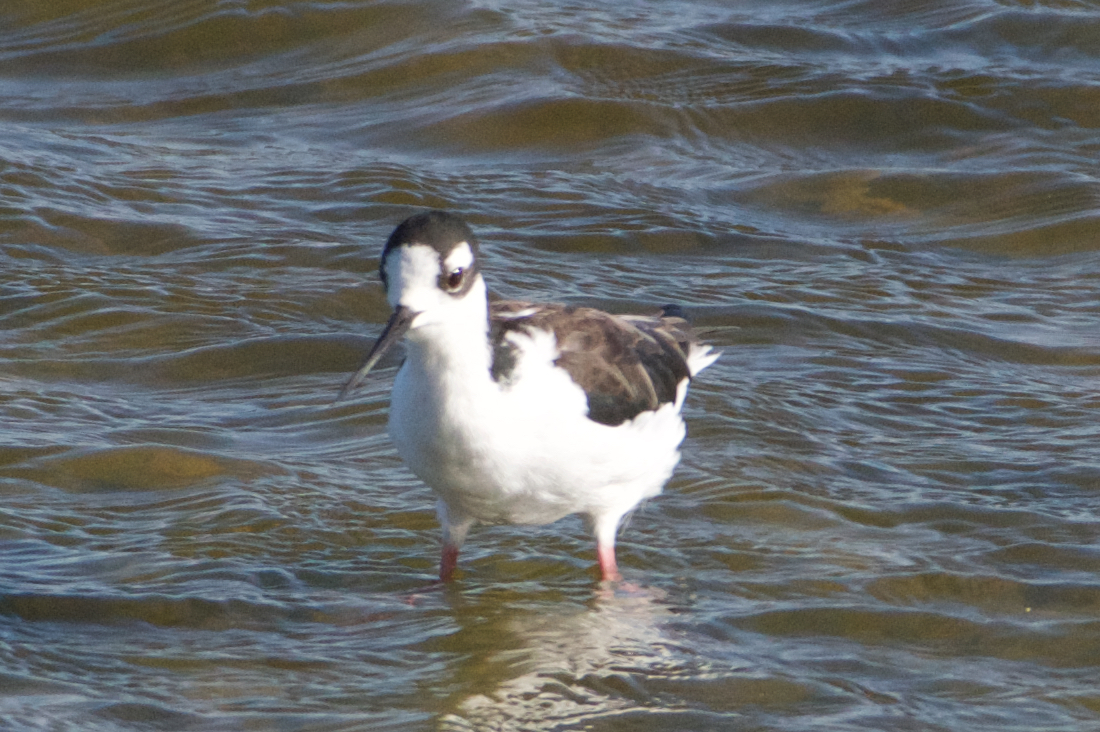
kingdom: Animalia
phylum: Chordata
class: Aves
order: Charadriiformes
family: Recurvirostridae
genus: Himantopus
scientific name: Himantopus mexicanus
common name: Black-necked stilt
